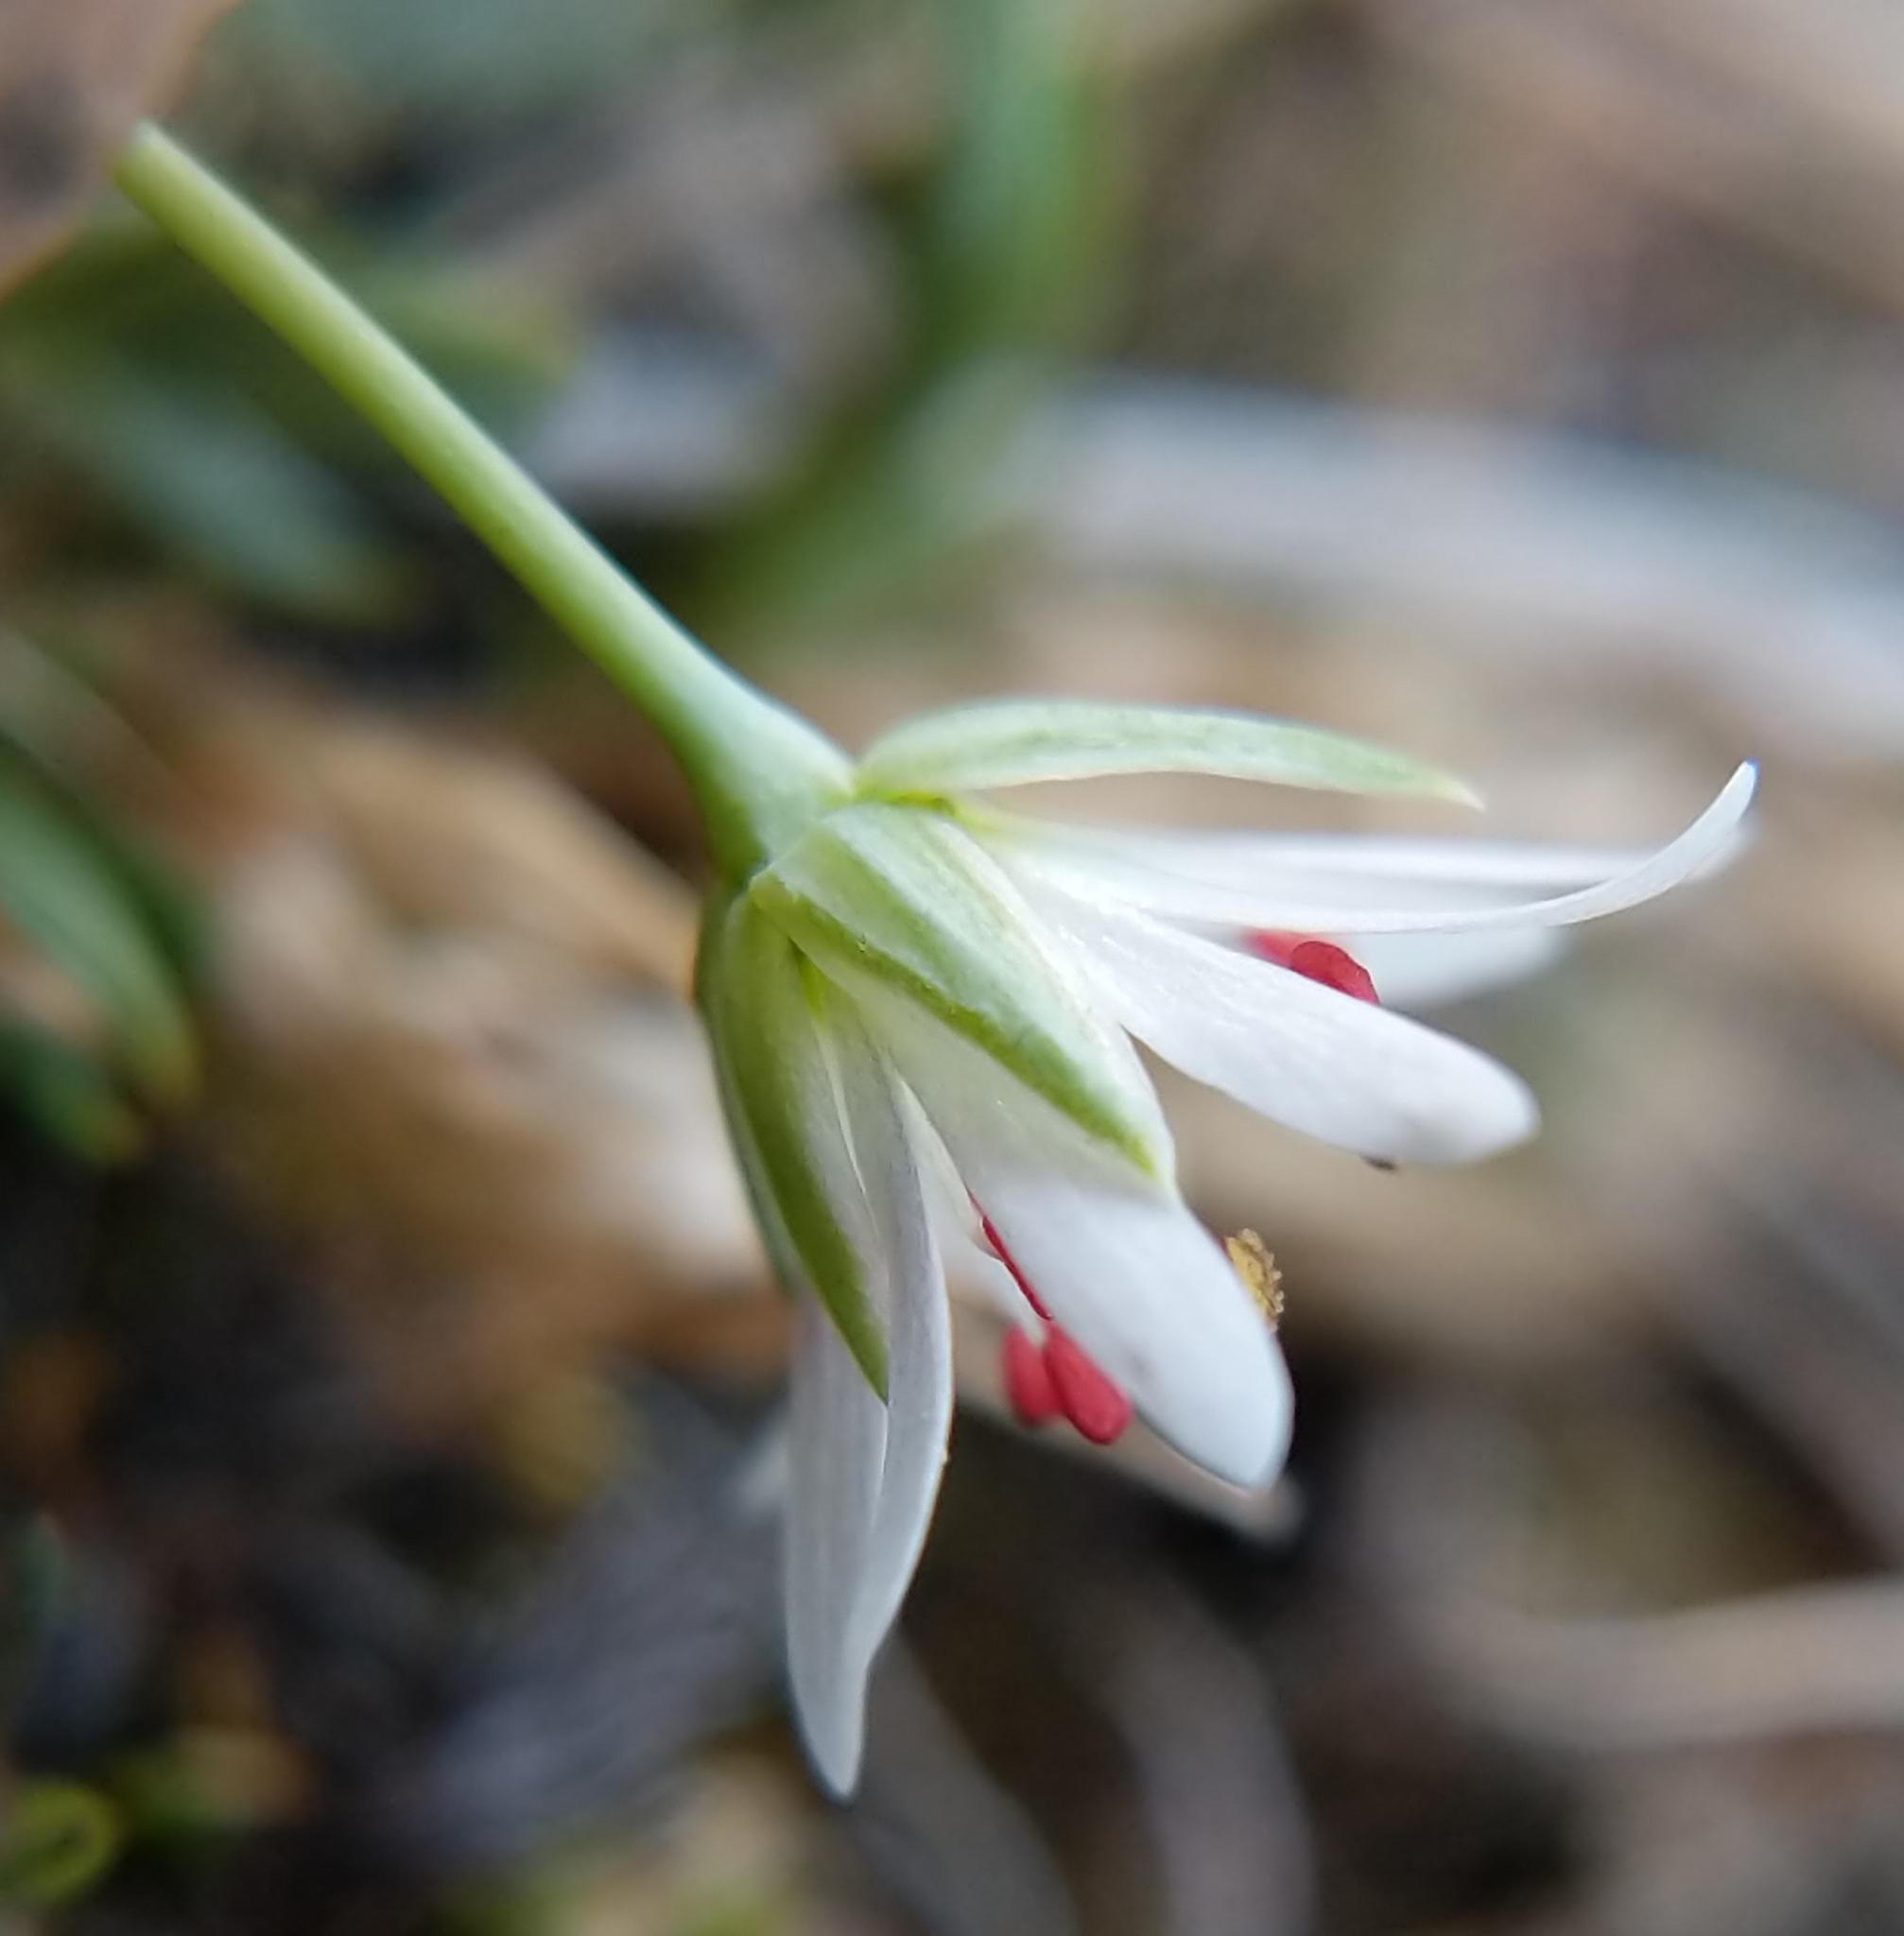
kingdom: Plantae
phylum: Tracheophyta
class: Magnoliopsida
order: Caryophyllales
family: Caryophyllaceae
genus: Stellaria
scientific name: Stellaria longipes
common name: Goldie's starwort
